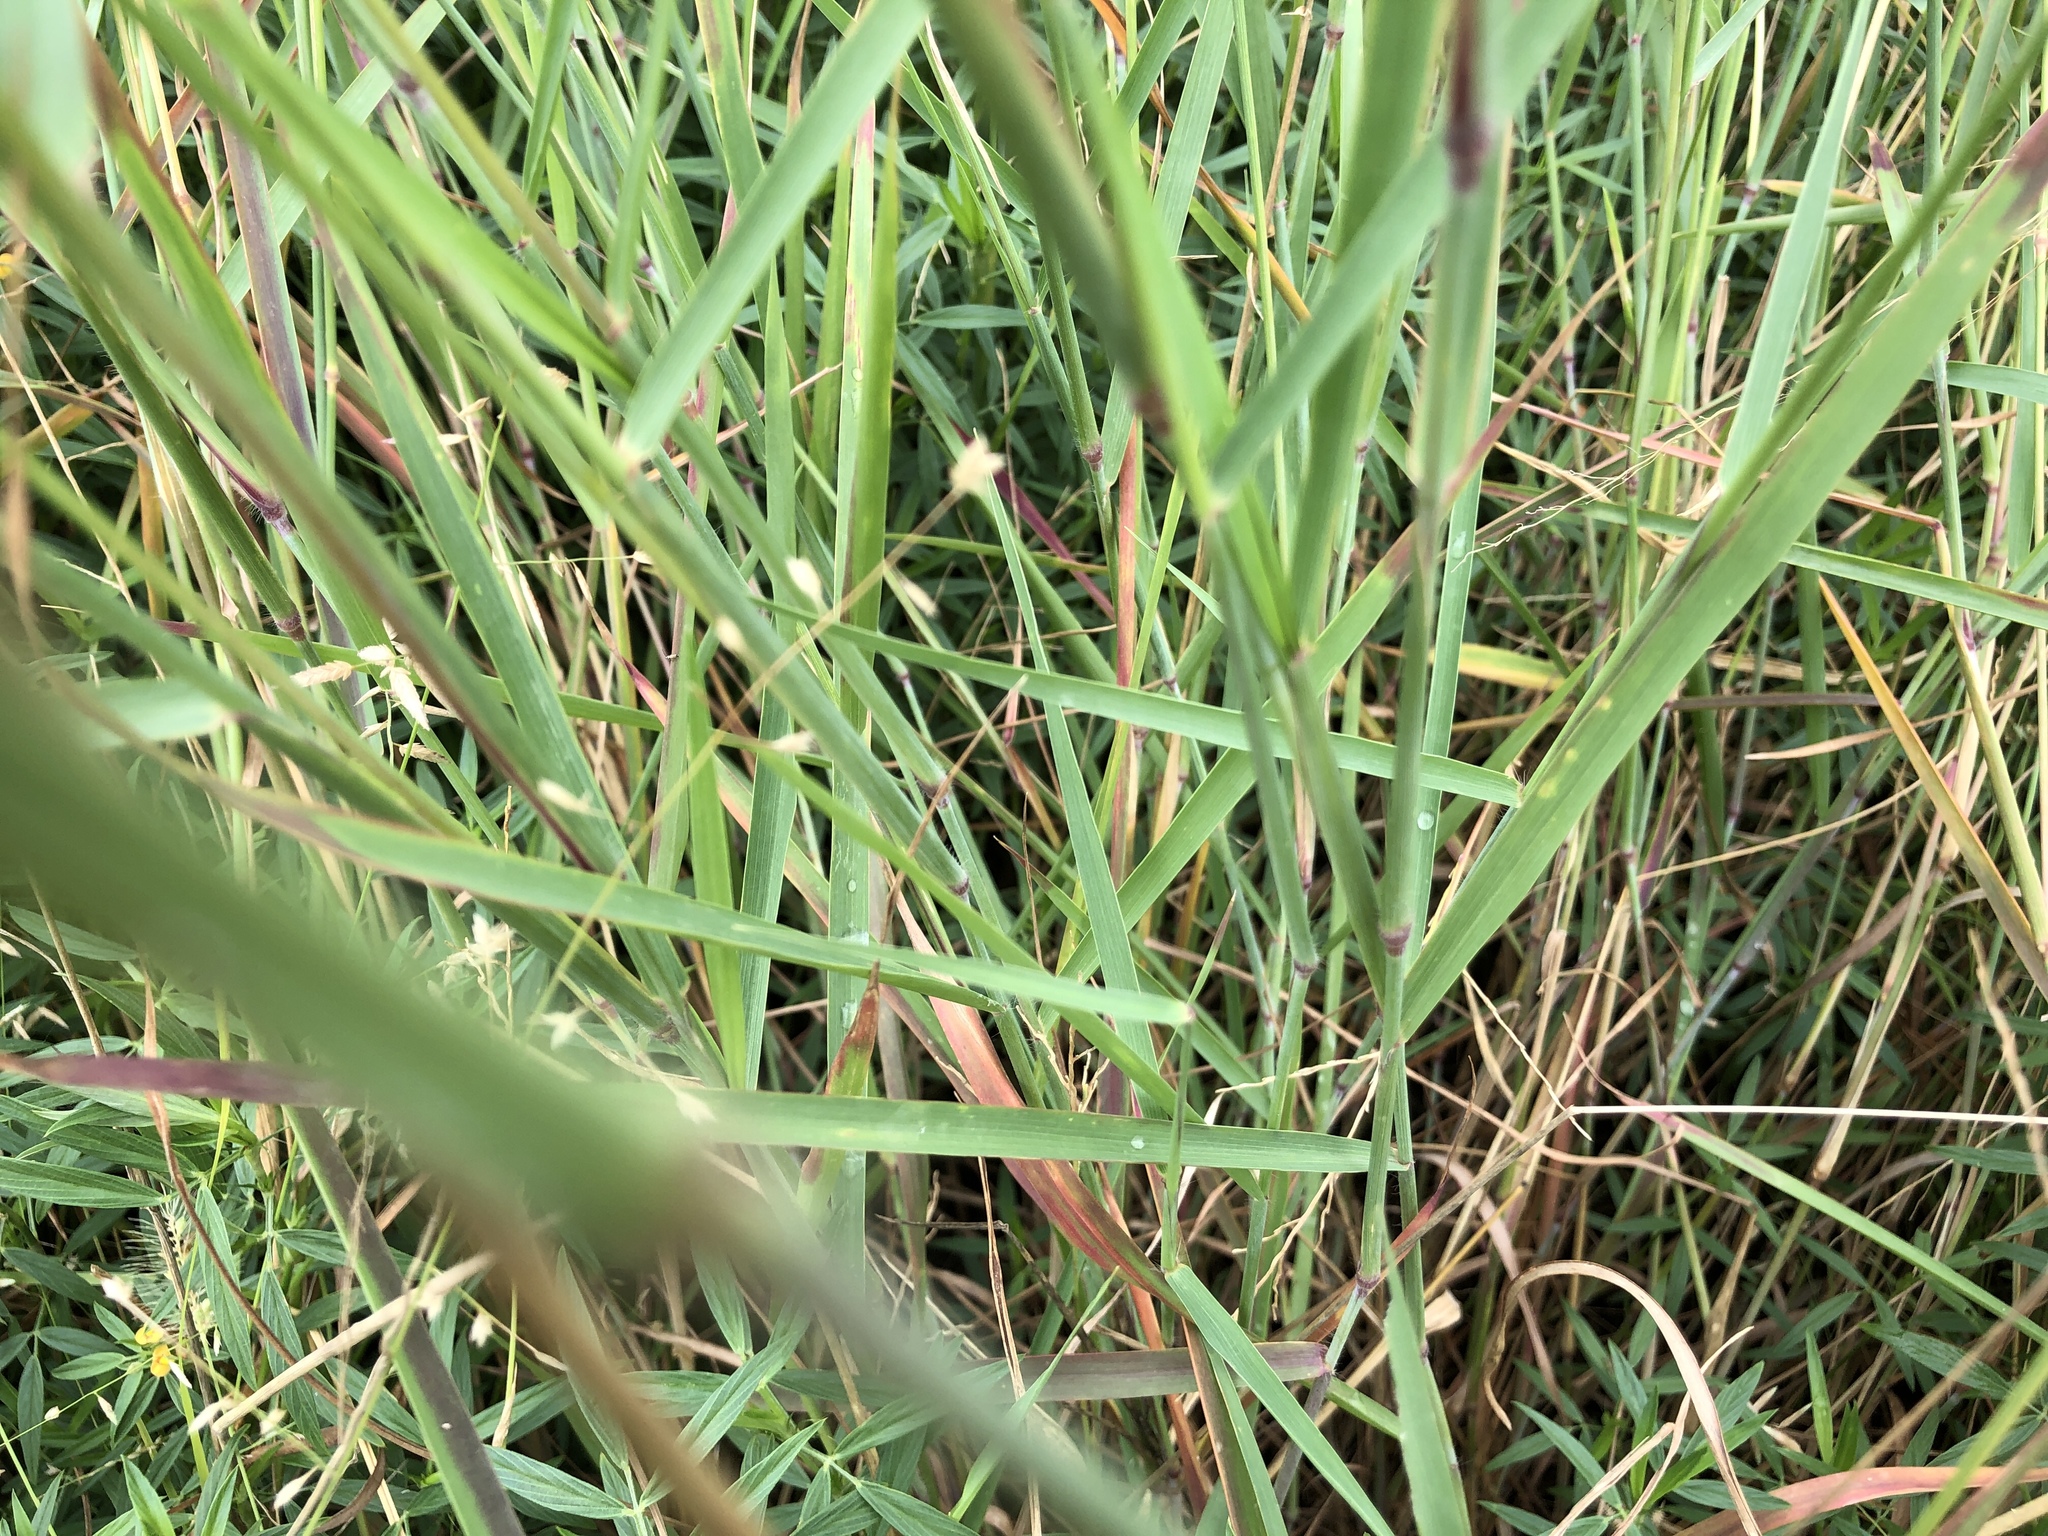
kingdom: Plantae
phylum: Tracheophyta
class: Liliopsida
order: Poales
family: Poaceae
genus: Melinis
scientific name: Melinis repens
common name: Rose natal grass
